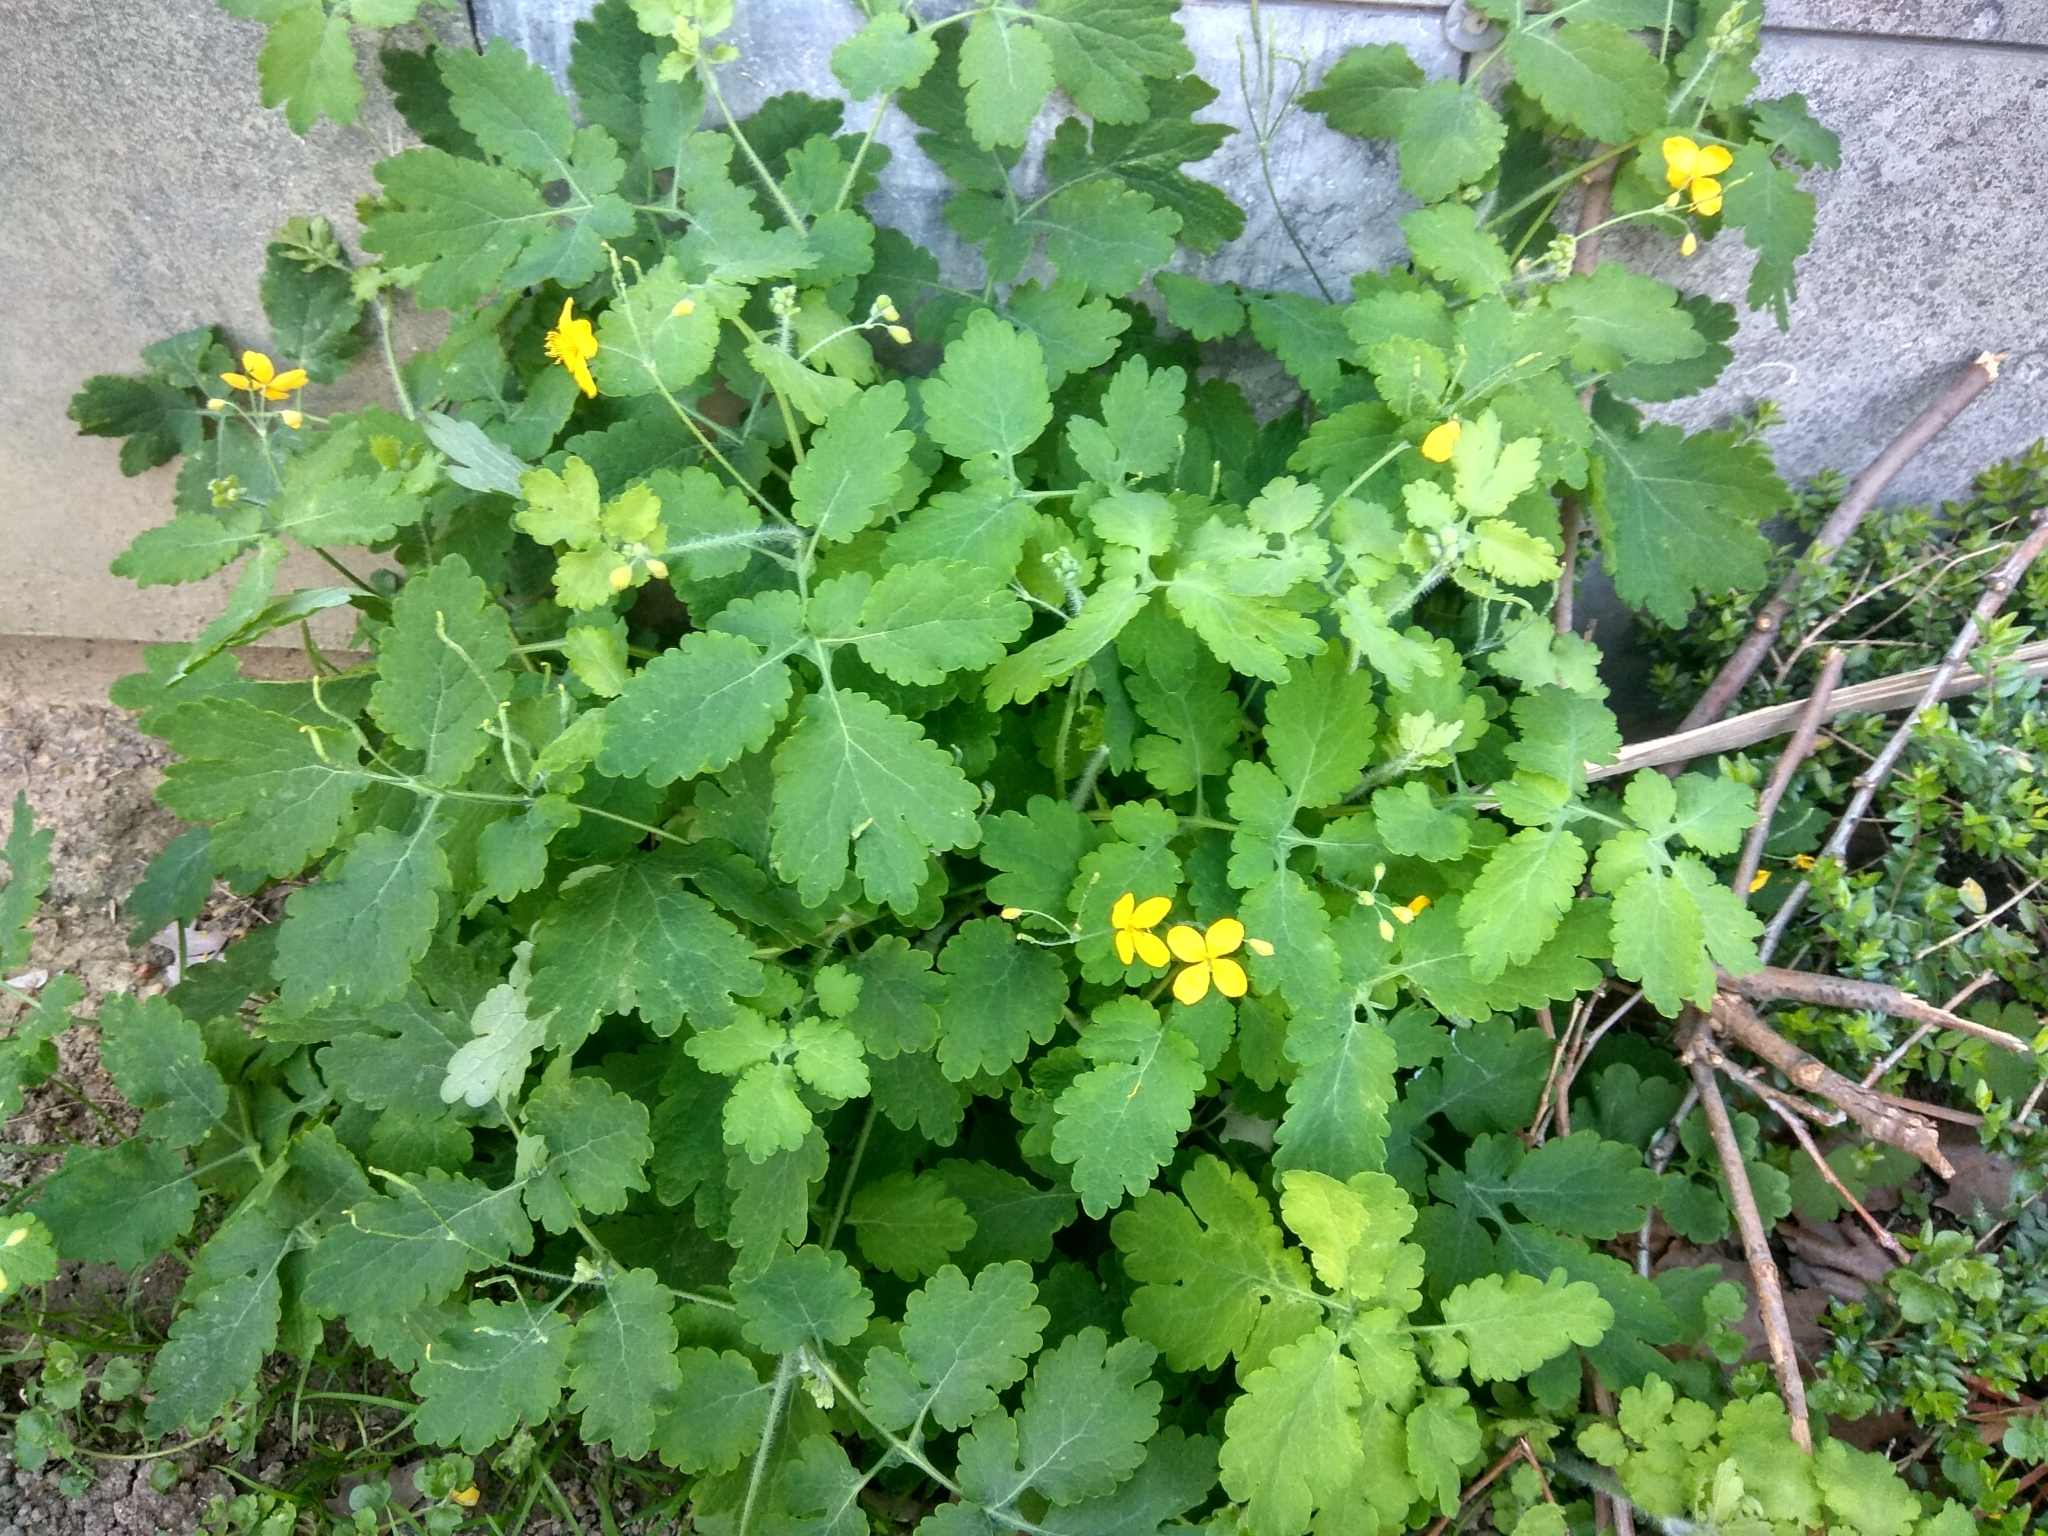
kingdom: Plantae
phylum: Tracheophyta
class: Magnoliopsida
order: Ranunculales
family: Papaveraceae
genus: Chelidonium
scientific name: Chelidonium majus
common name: Greater celandine
